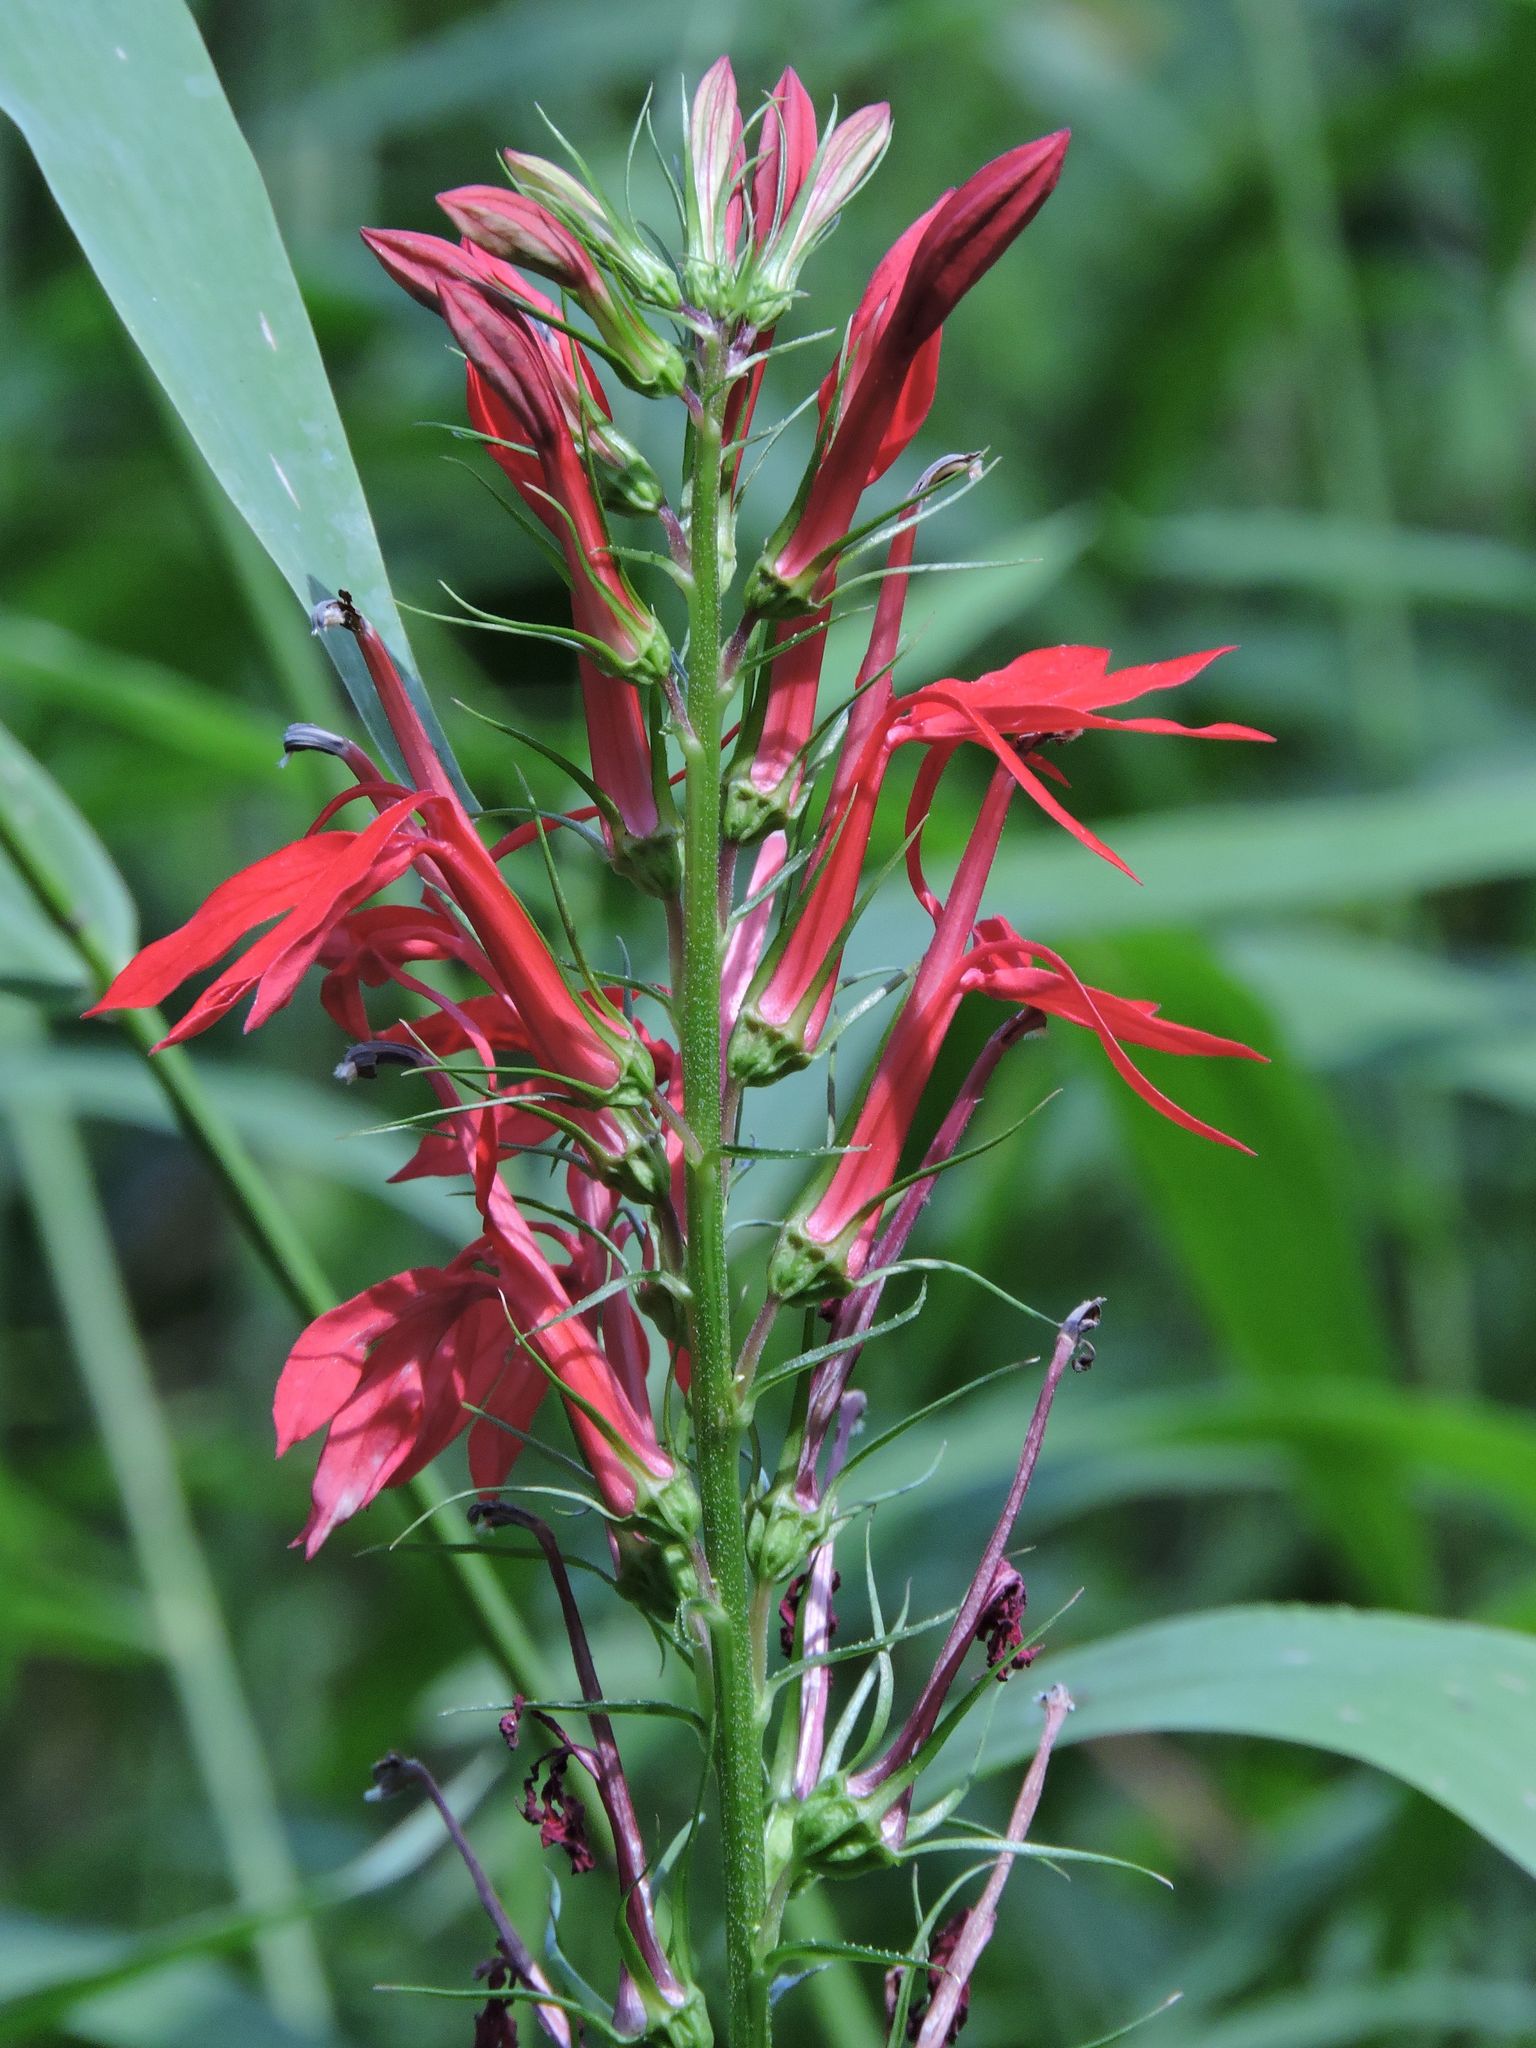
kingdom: Plantae
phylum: Tracheophyta
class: Magnoliopsida
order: Asterales
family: Campanulaceae
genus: Lobelia
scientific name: Lobelia cardinalis
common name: Cardinal flower
